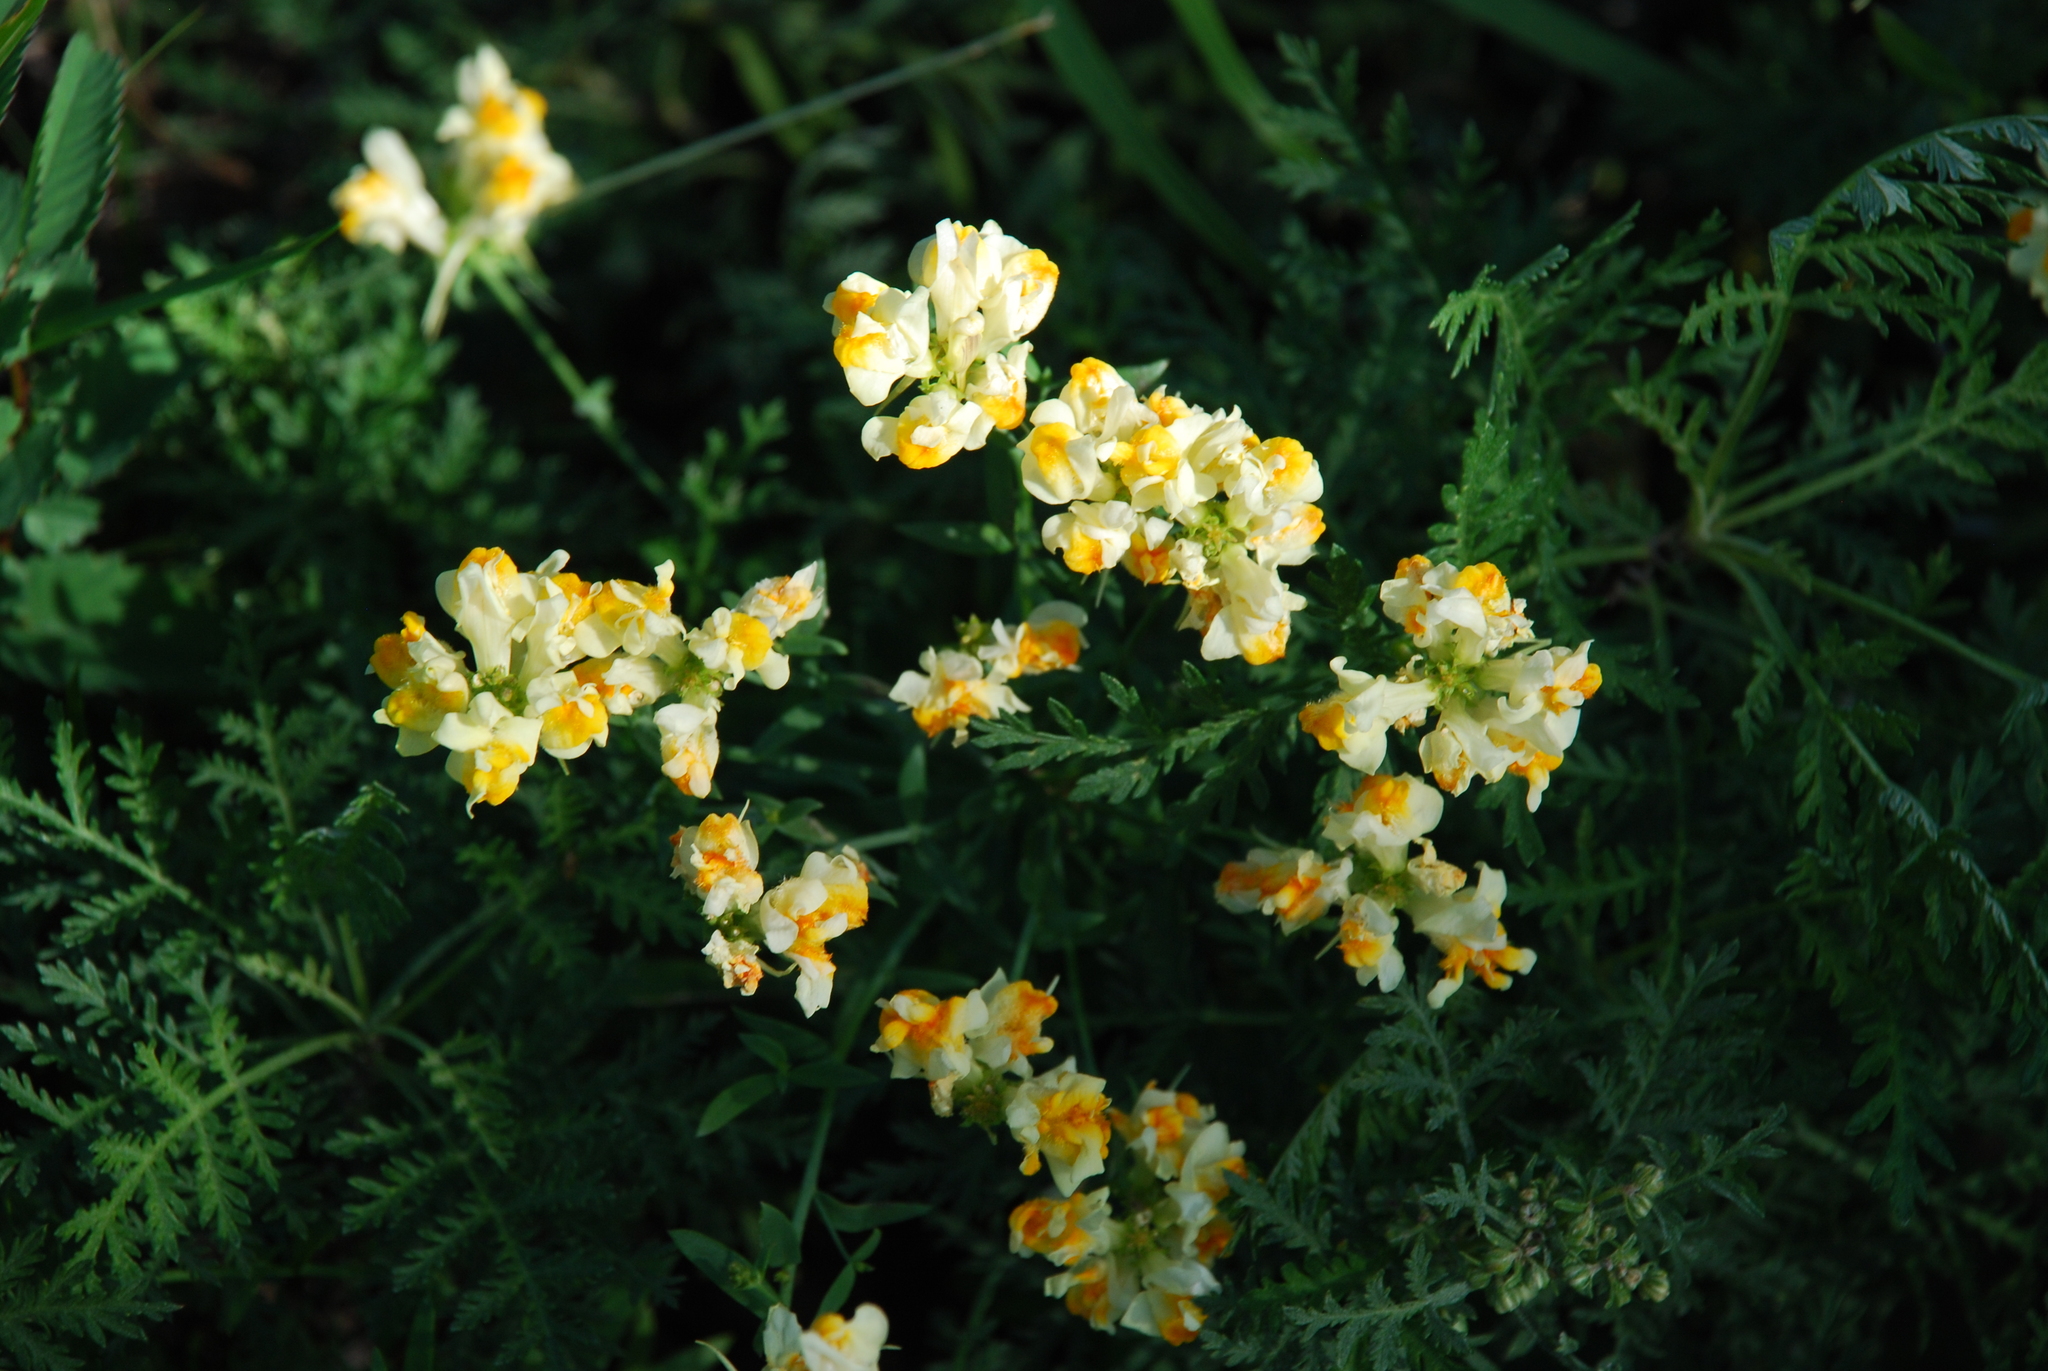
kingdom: Plantae
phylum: Tracheophyta
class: Magnoliopsida
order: Lamiales
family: Plantaginaceae
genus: Linaria
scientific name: Linaria vulgaris
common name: Butter and eggs
